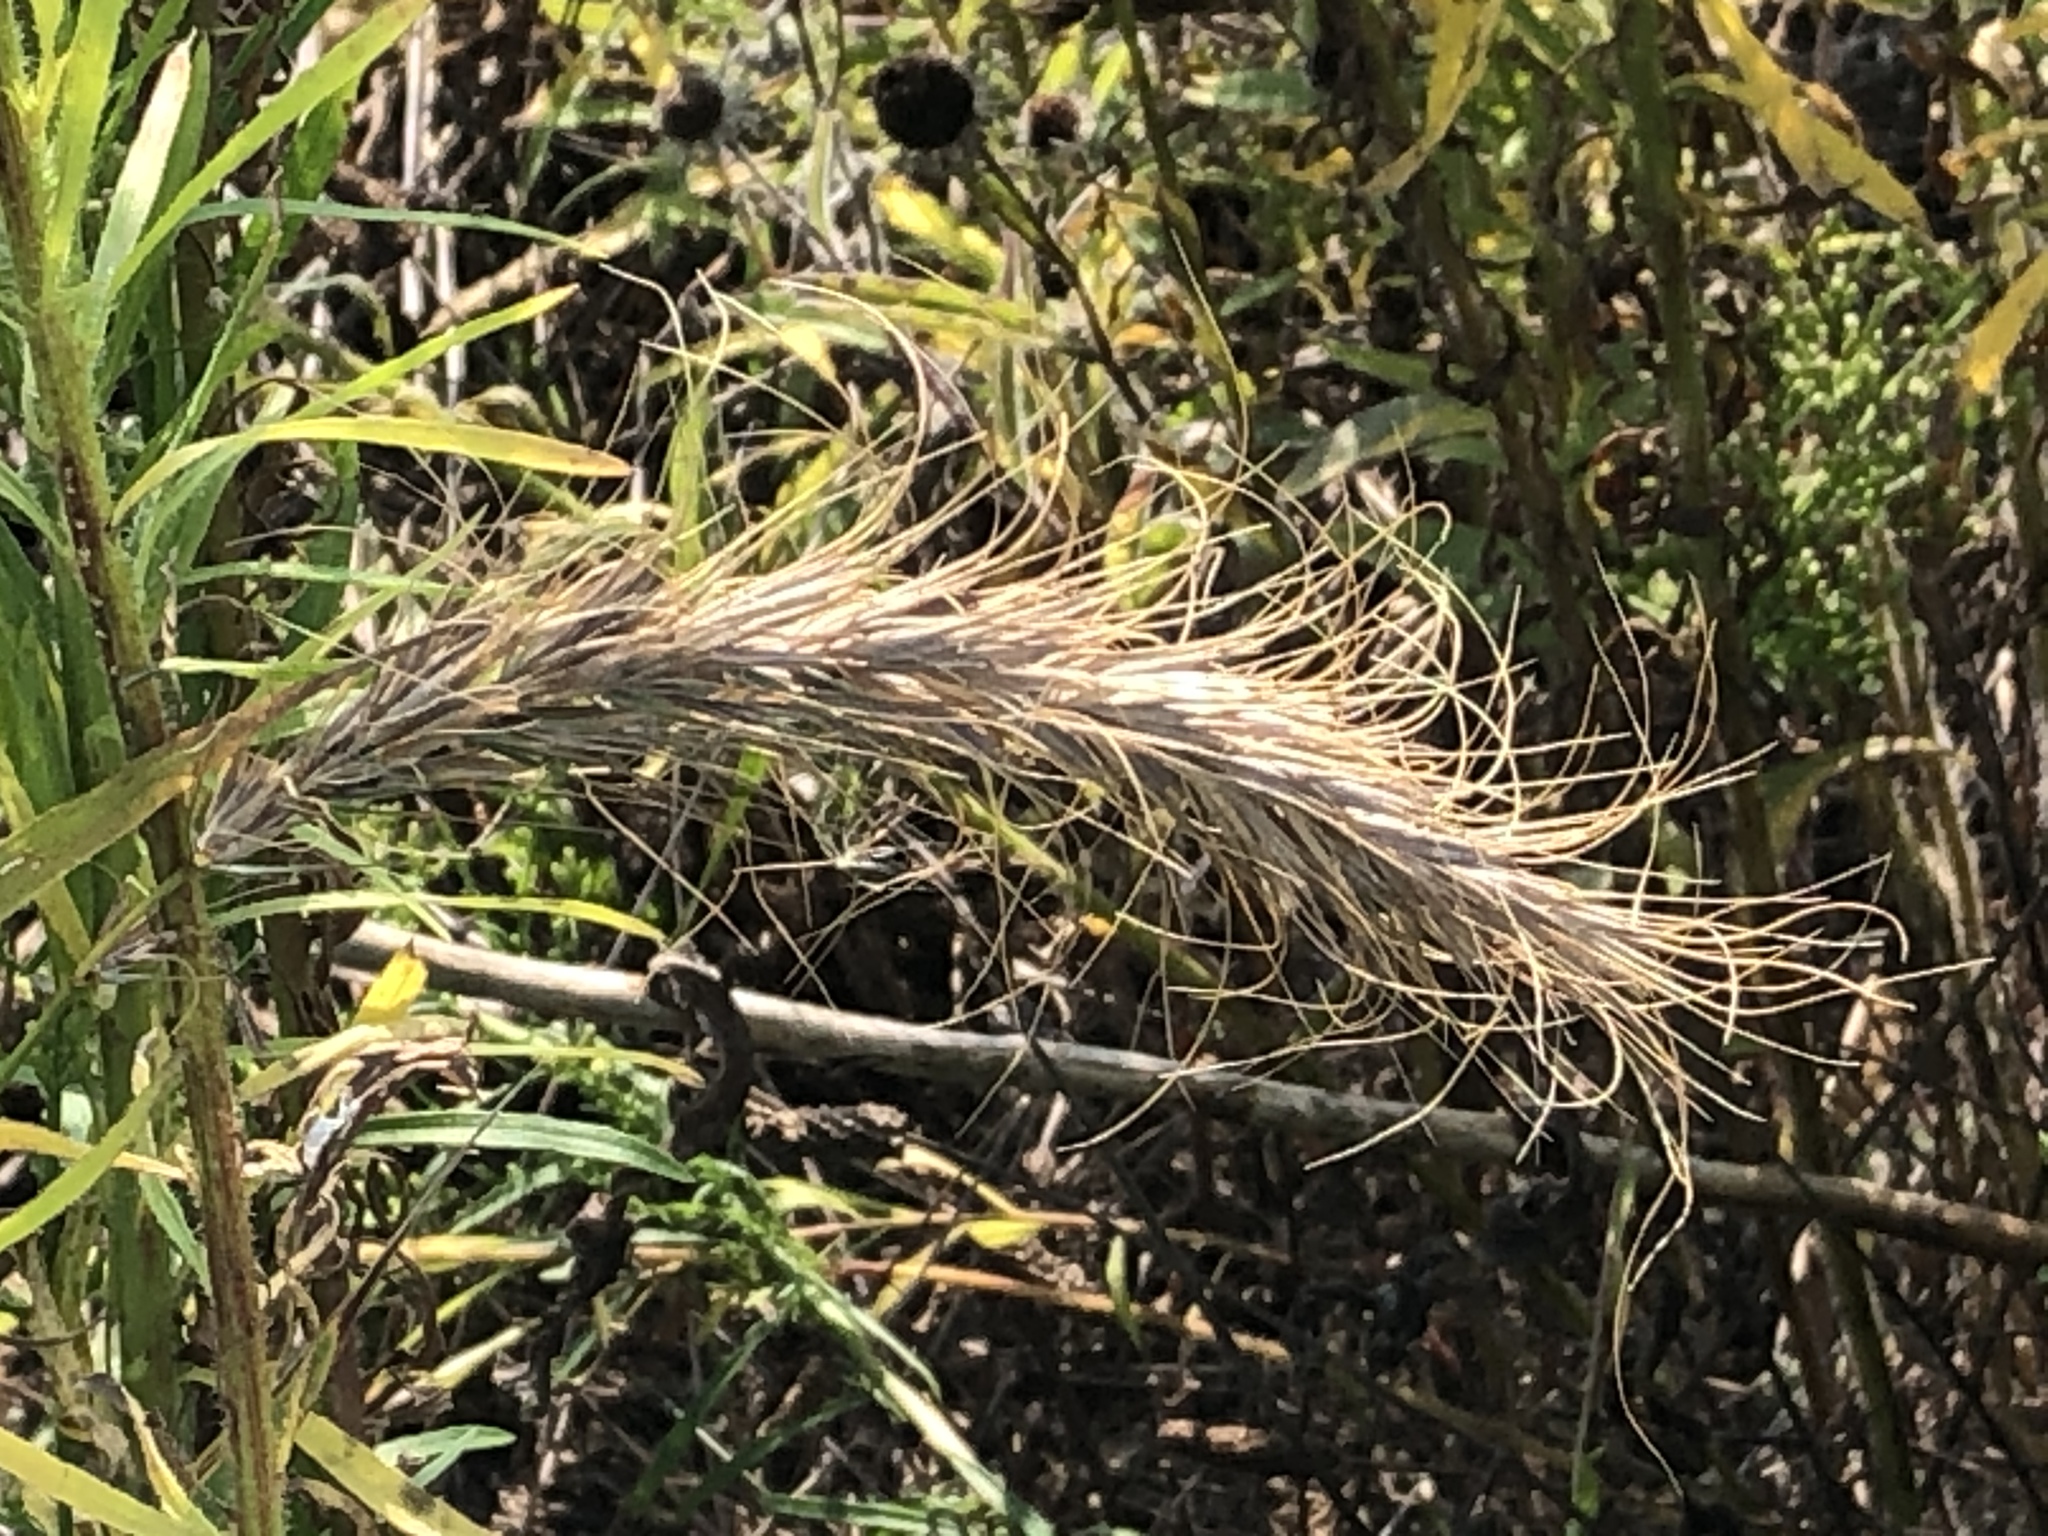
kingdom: Plantae
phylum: Tracheophyta
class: Liliopsida
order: Poales
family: Poaceae
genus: Elymus
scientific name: Elymus canadensis
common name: Canada wild rye
